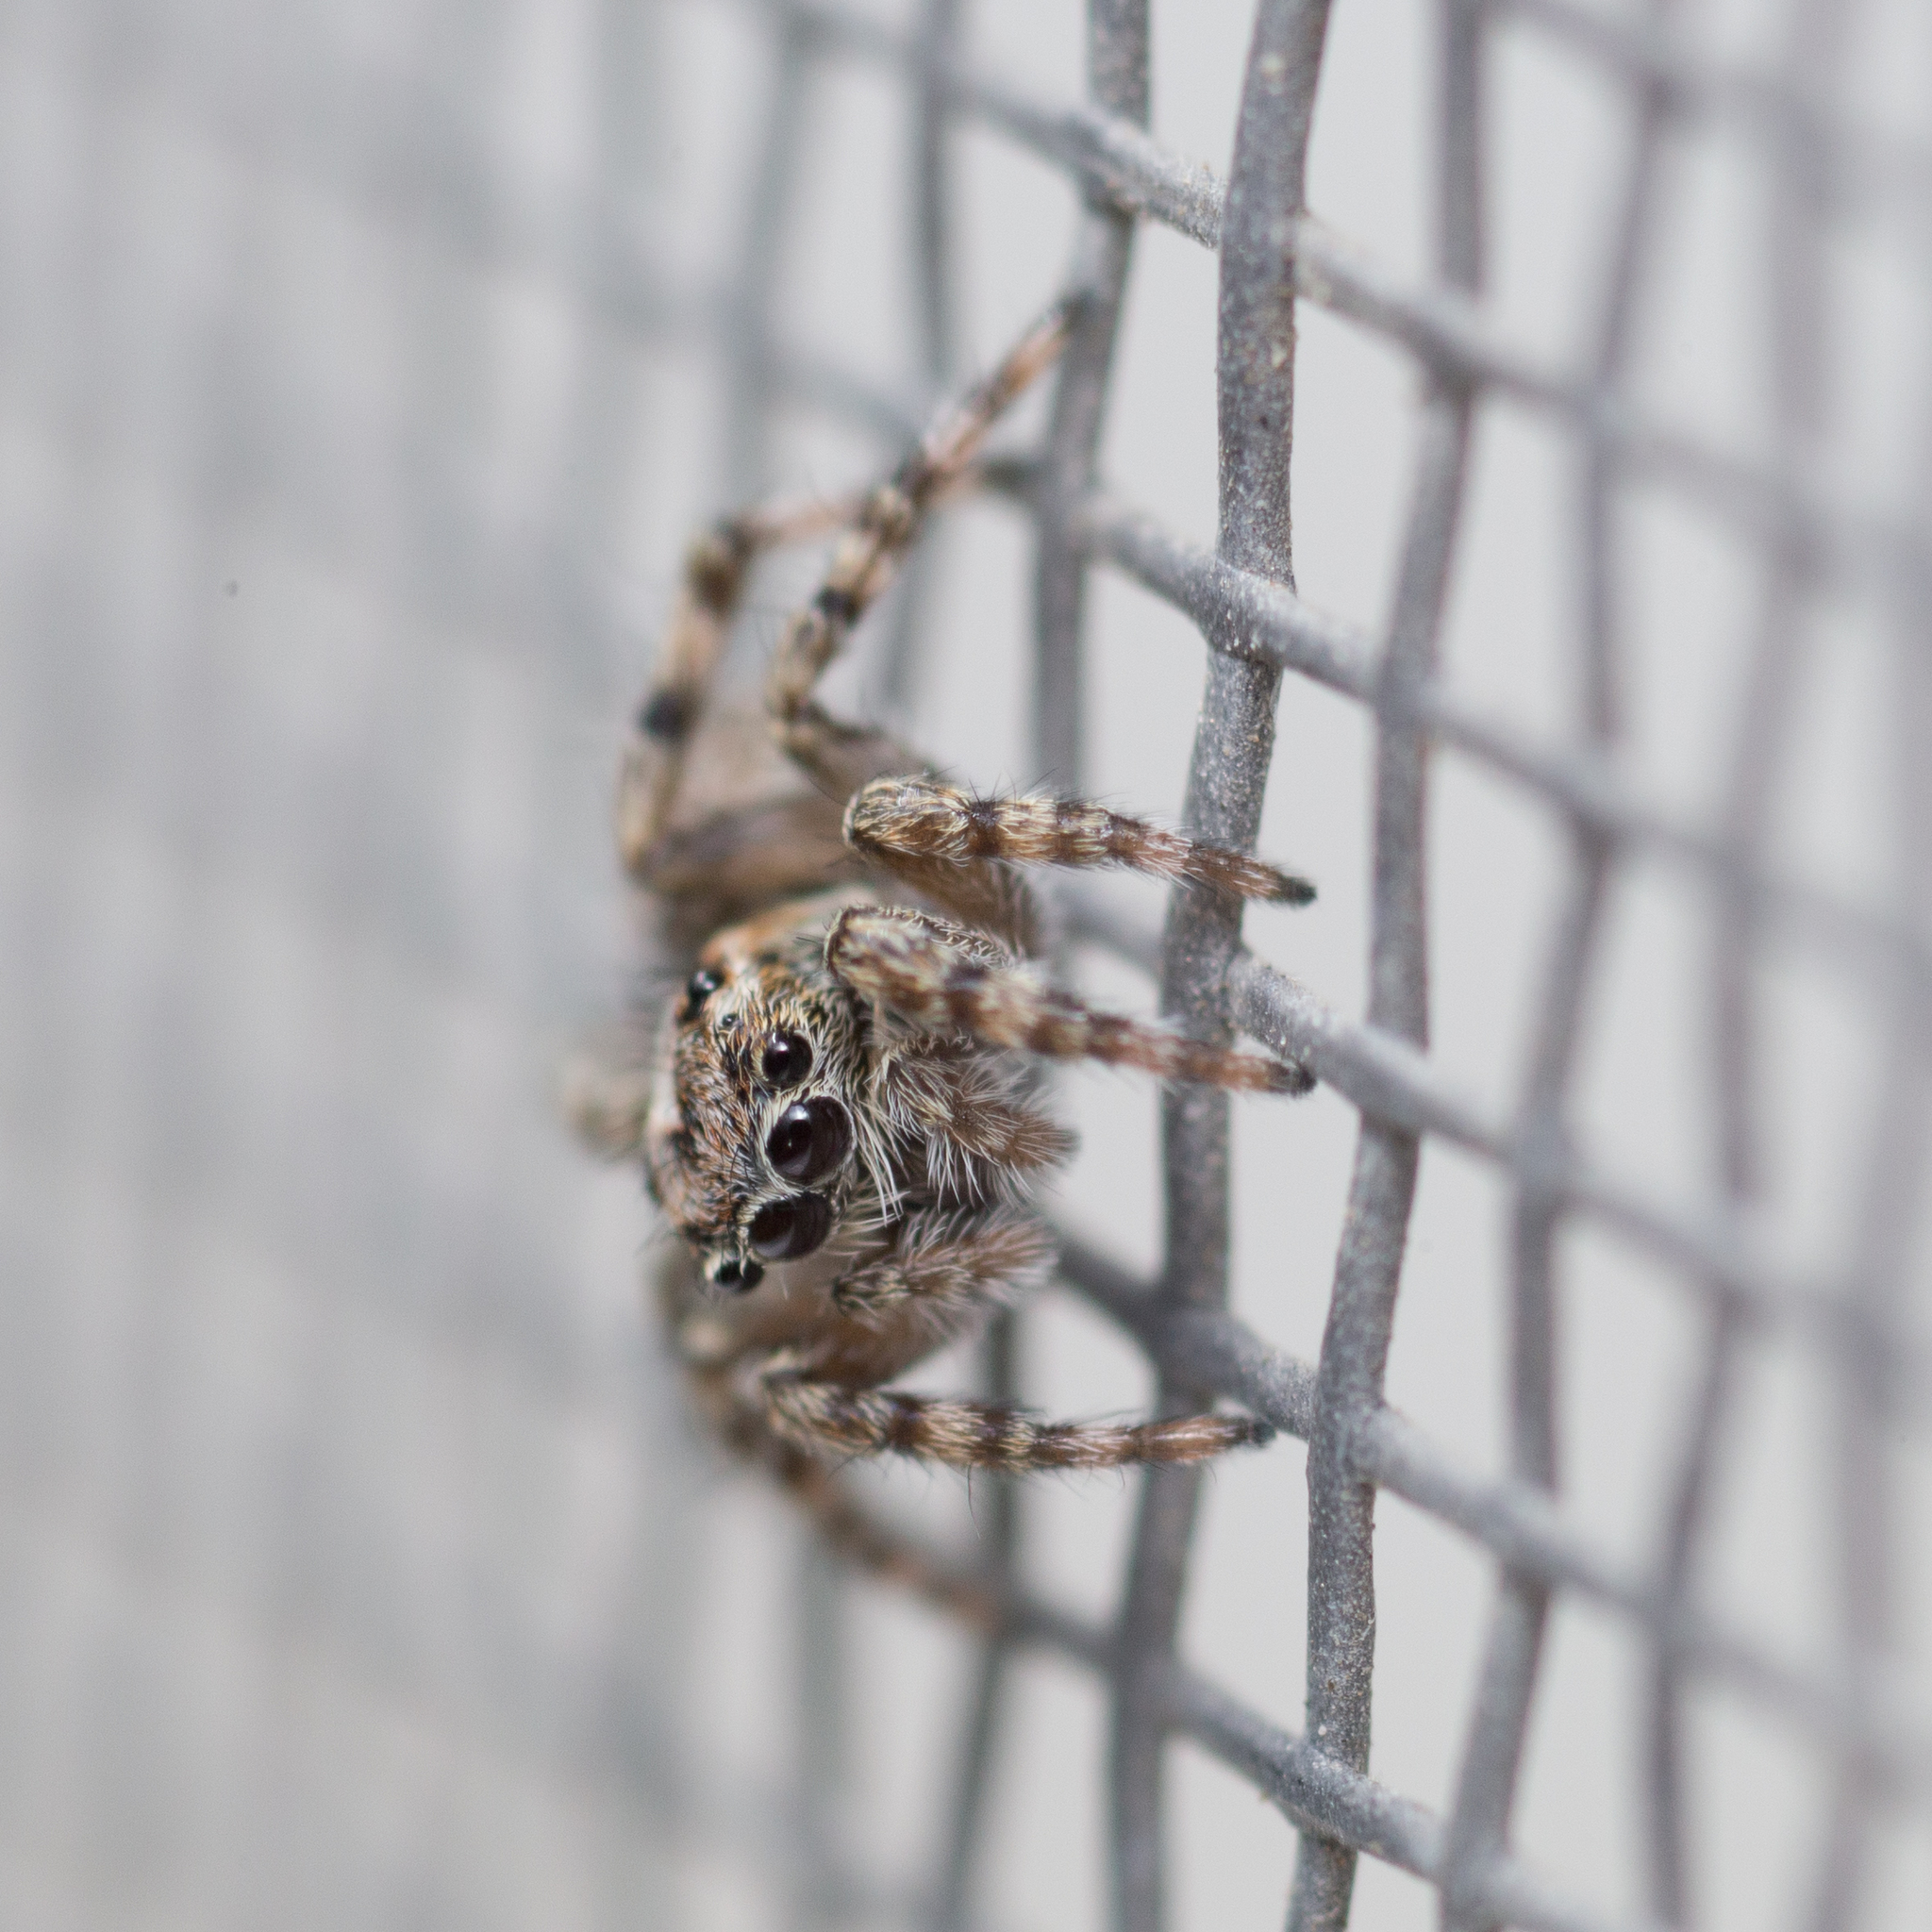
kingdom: Animalia
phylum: Arthropoda
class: Arachnida
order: Araneae
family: Salticidae
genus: Attulus
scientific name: Attulus terebratus
